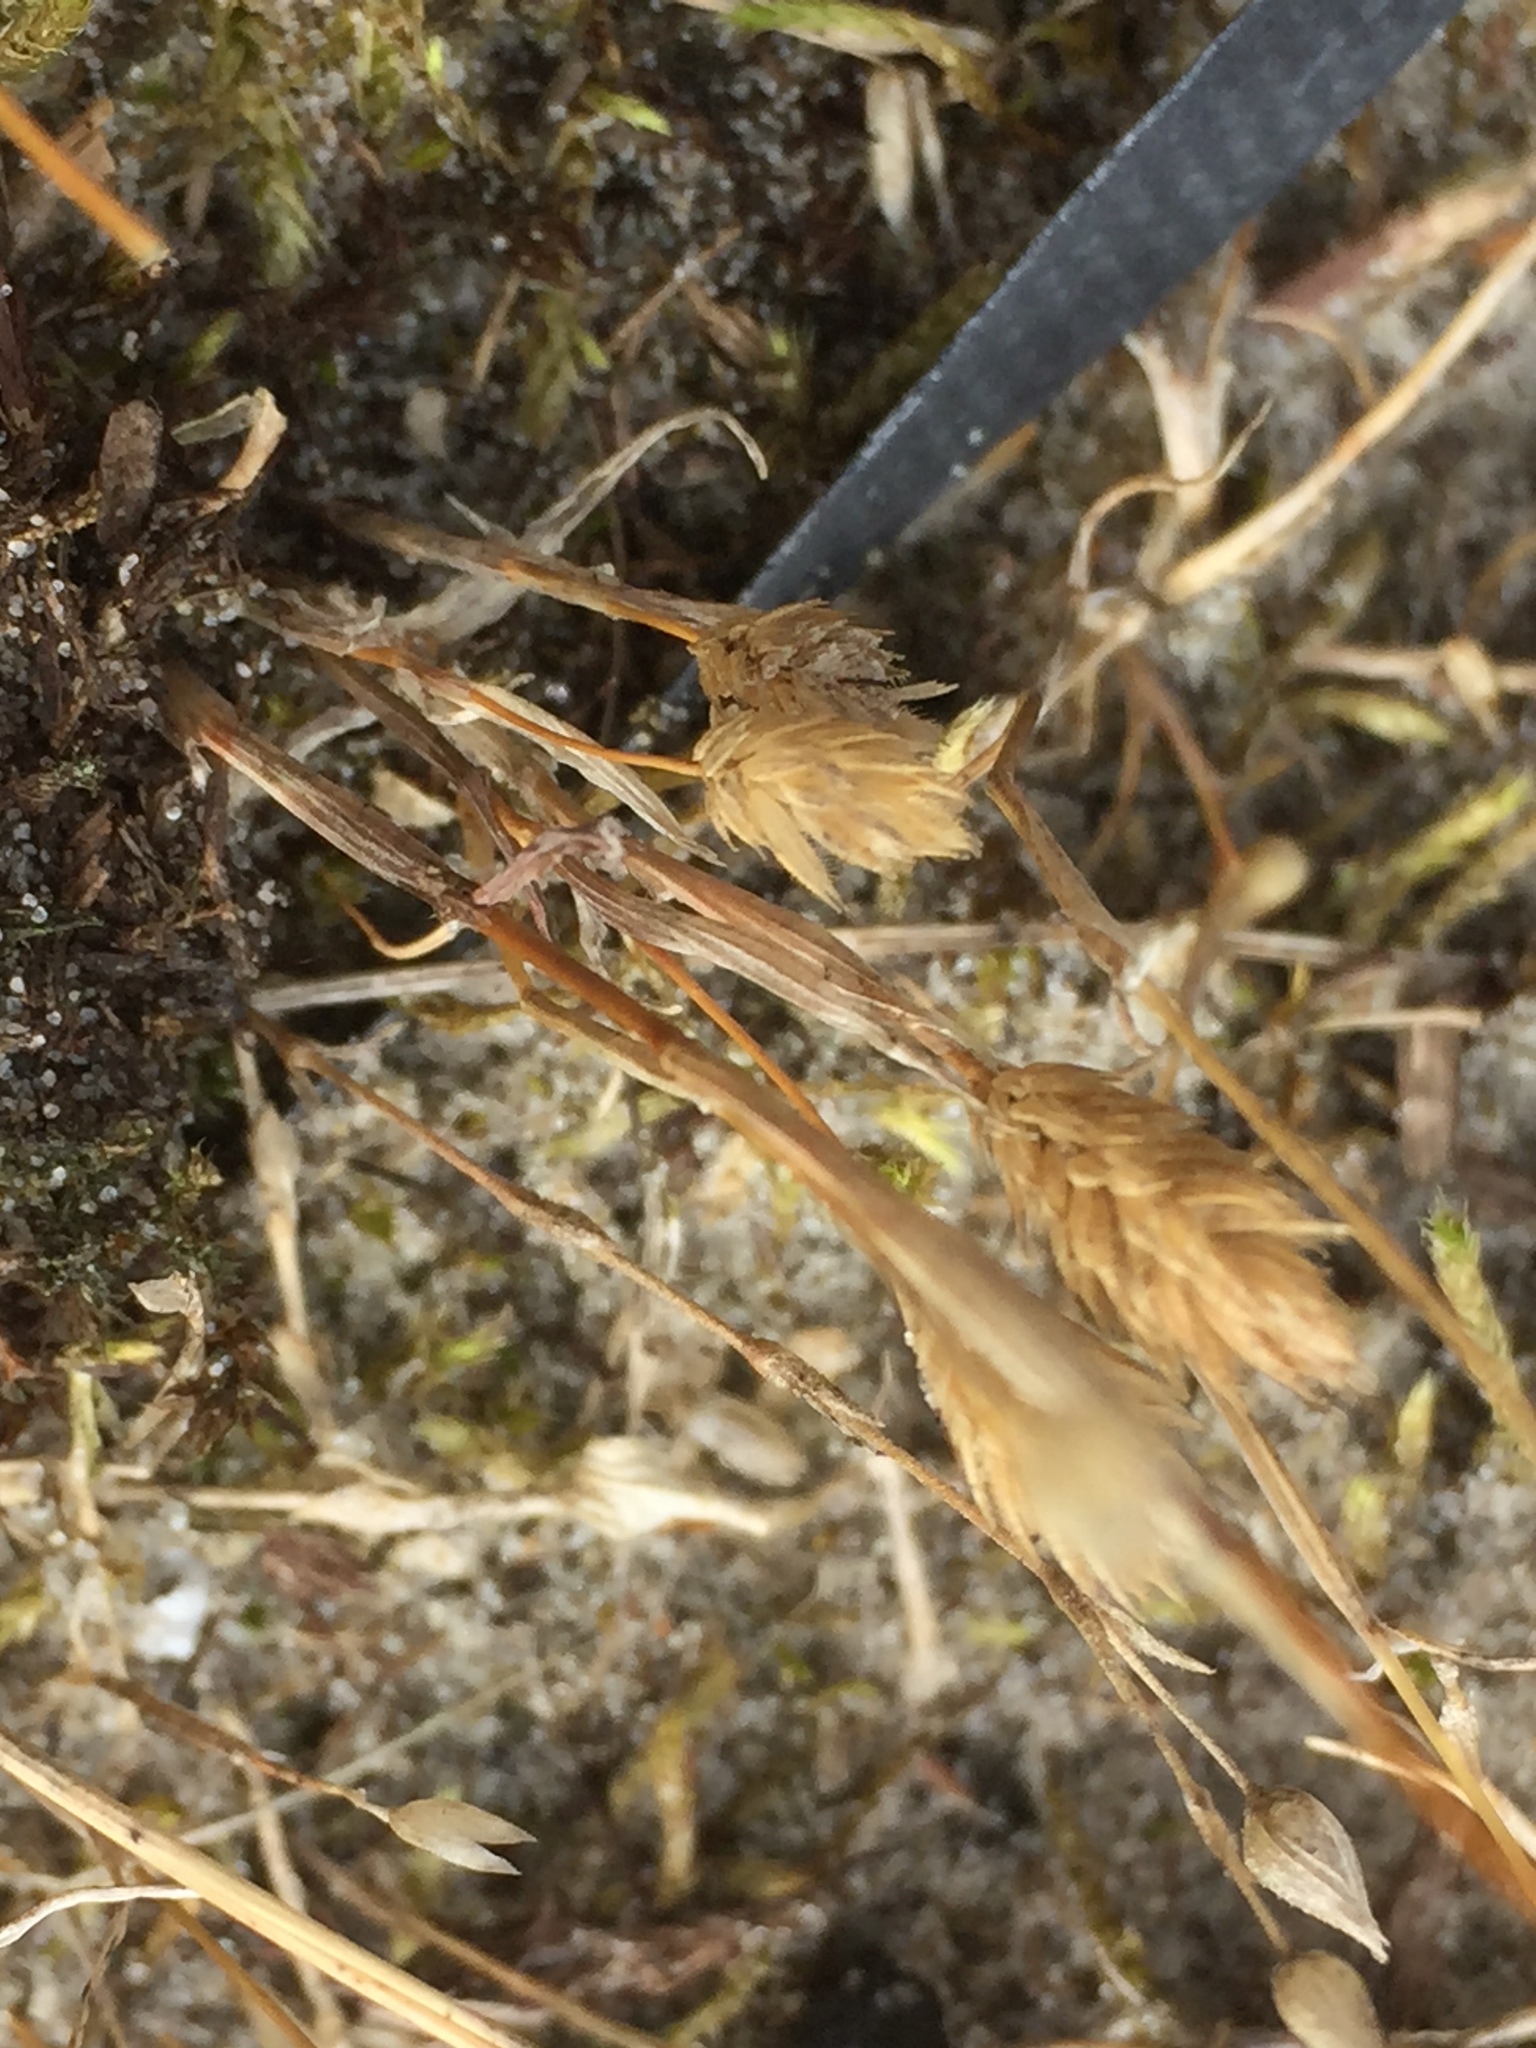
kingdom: Plantae
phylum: Tracheophyta
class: Liliopsida
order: Poales
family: Poaceae
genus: Phleum
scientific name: Phleum arenarium
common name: Sand cat's-tail
